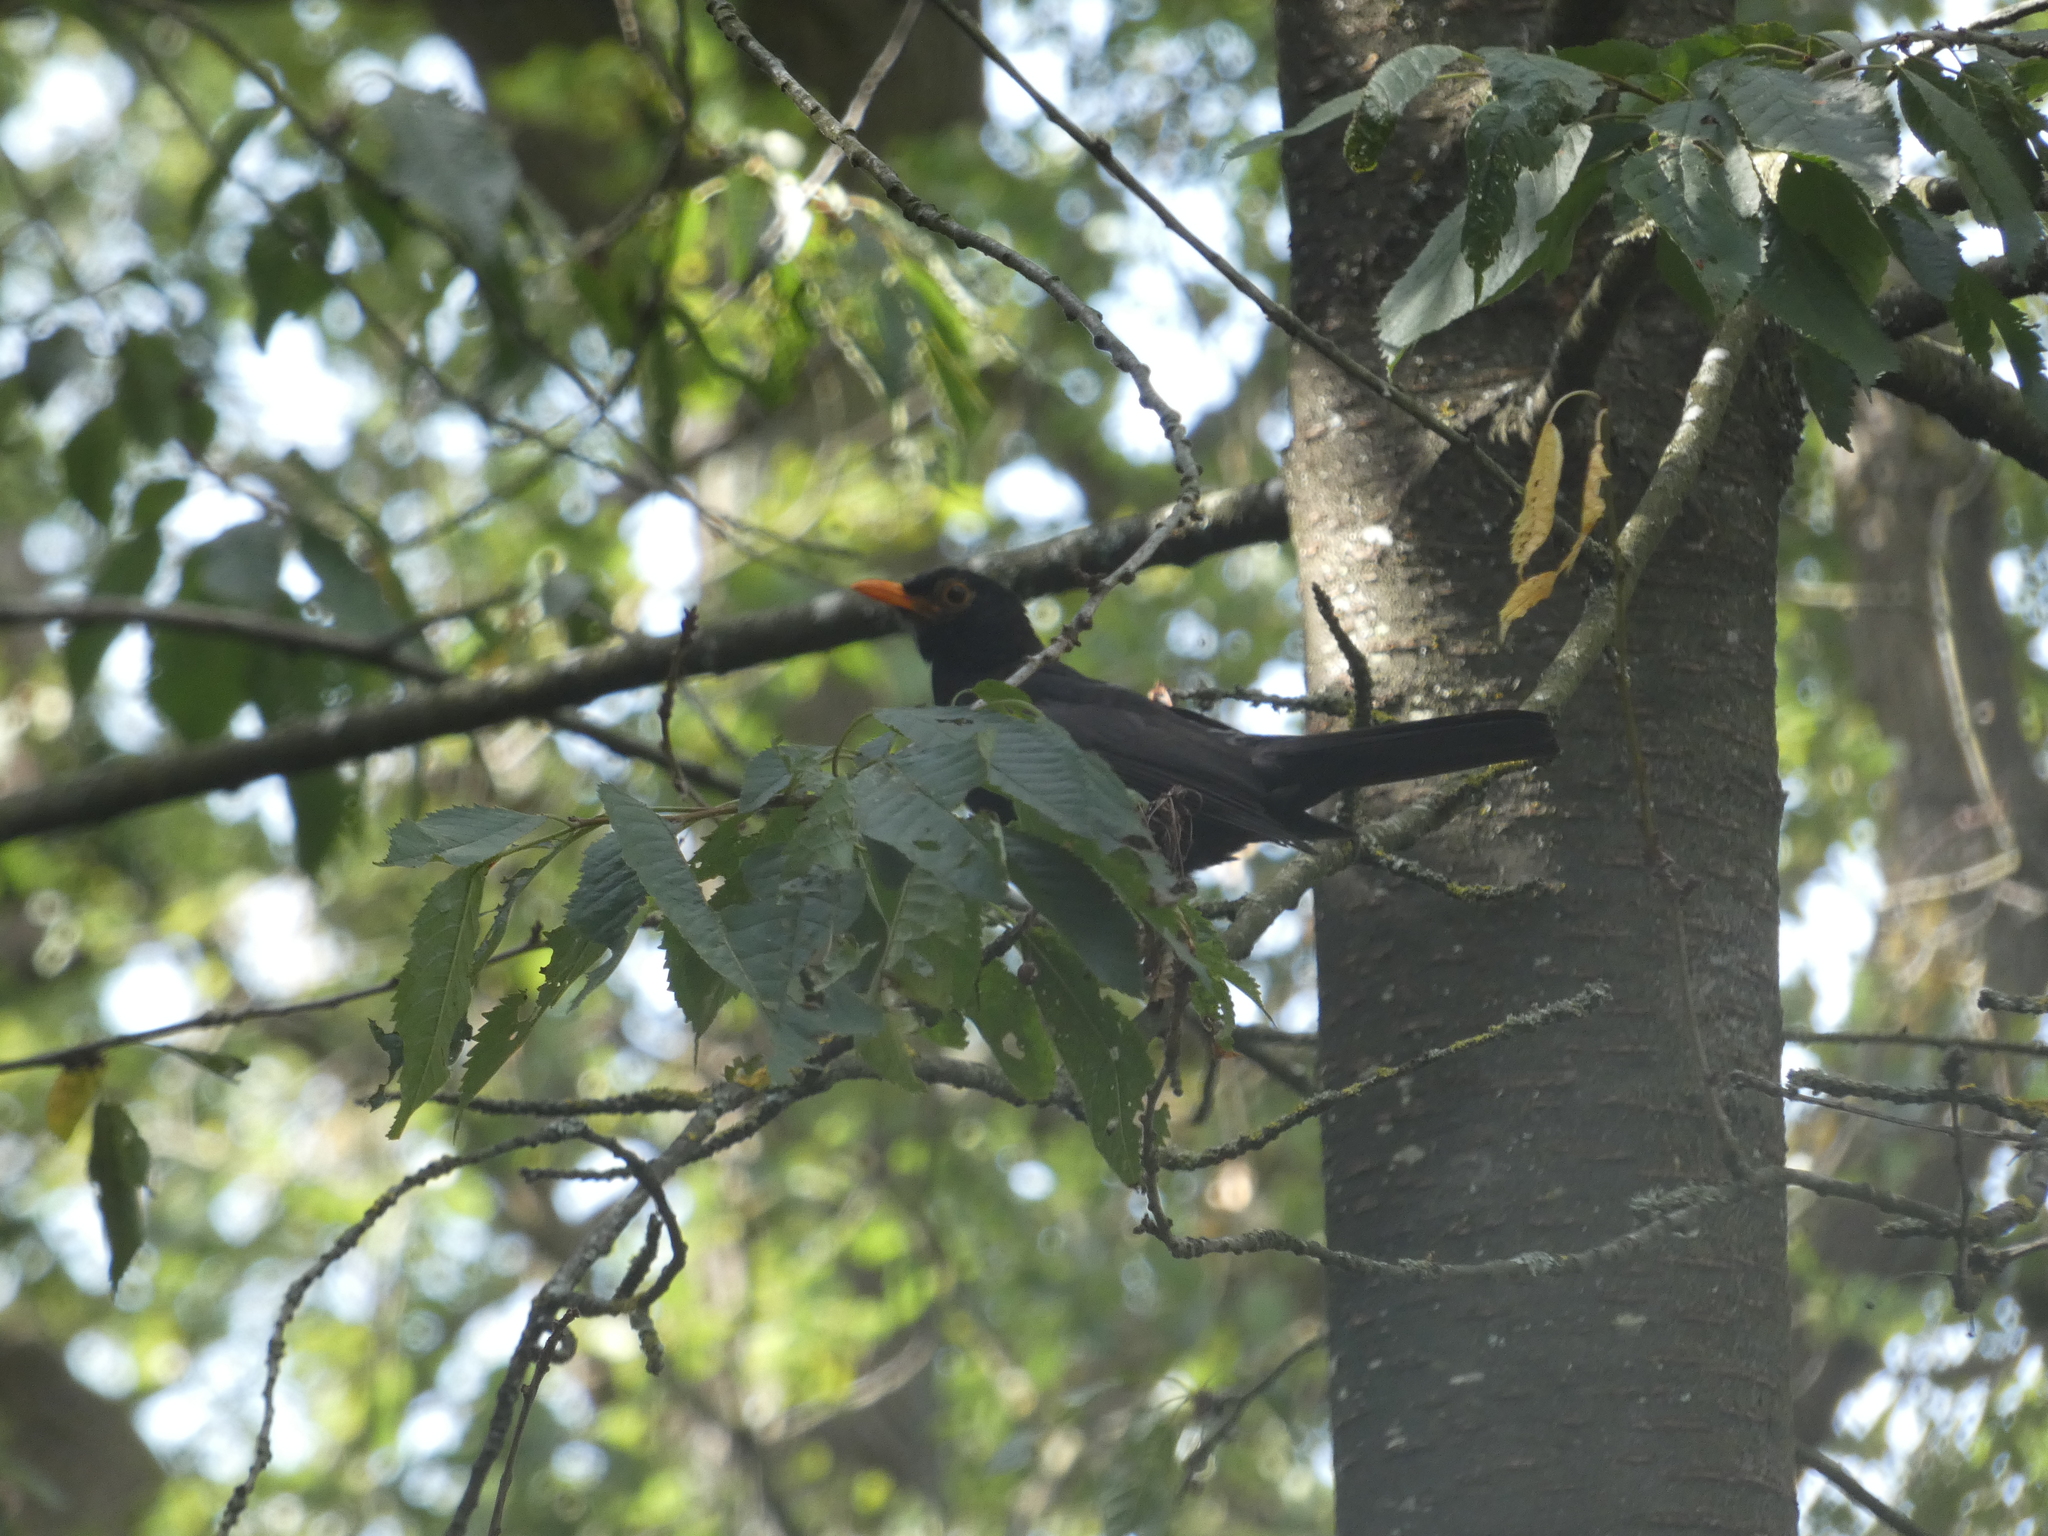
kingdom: Animalia
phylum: Chordata
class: Aves
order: Passeriformes
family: Turdidae
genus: Turdus
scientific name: Turdus merula
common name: Common blackbird
